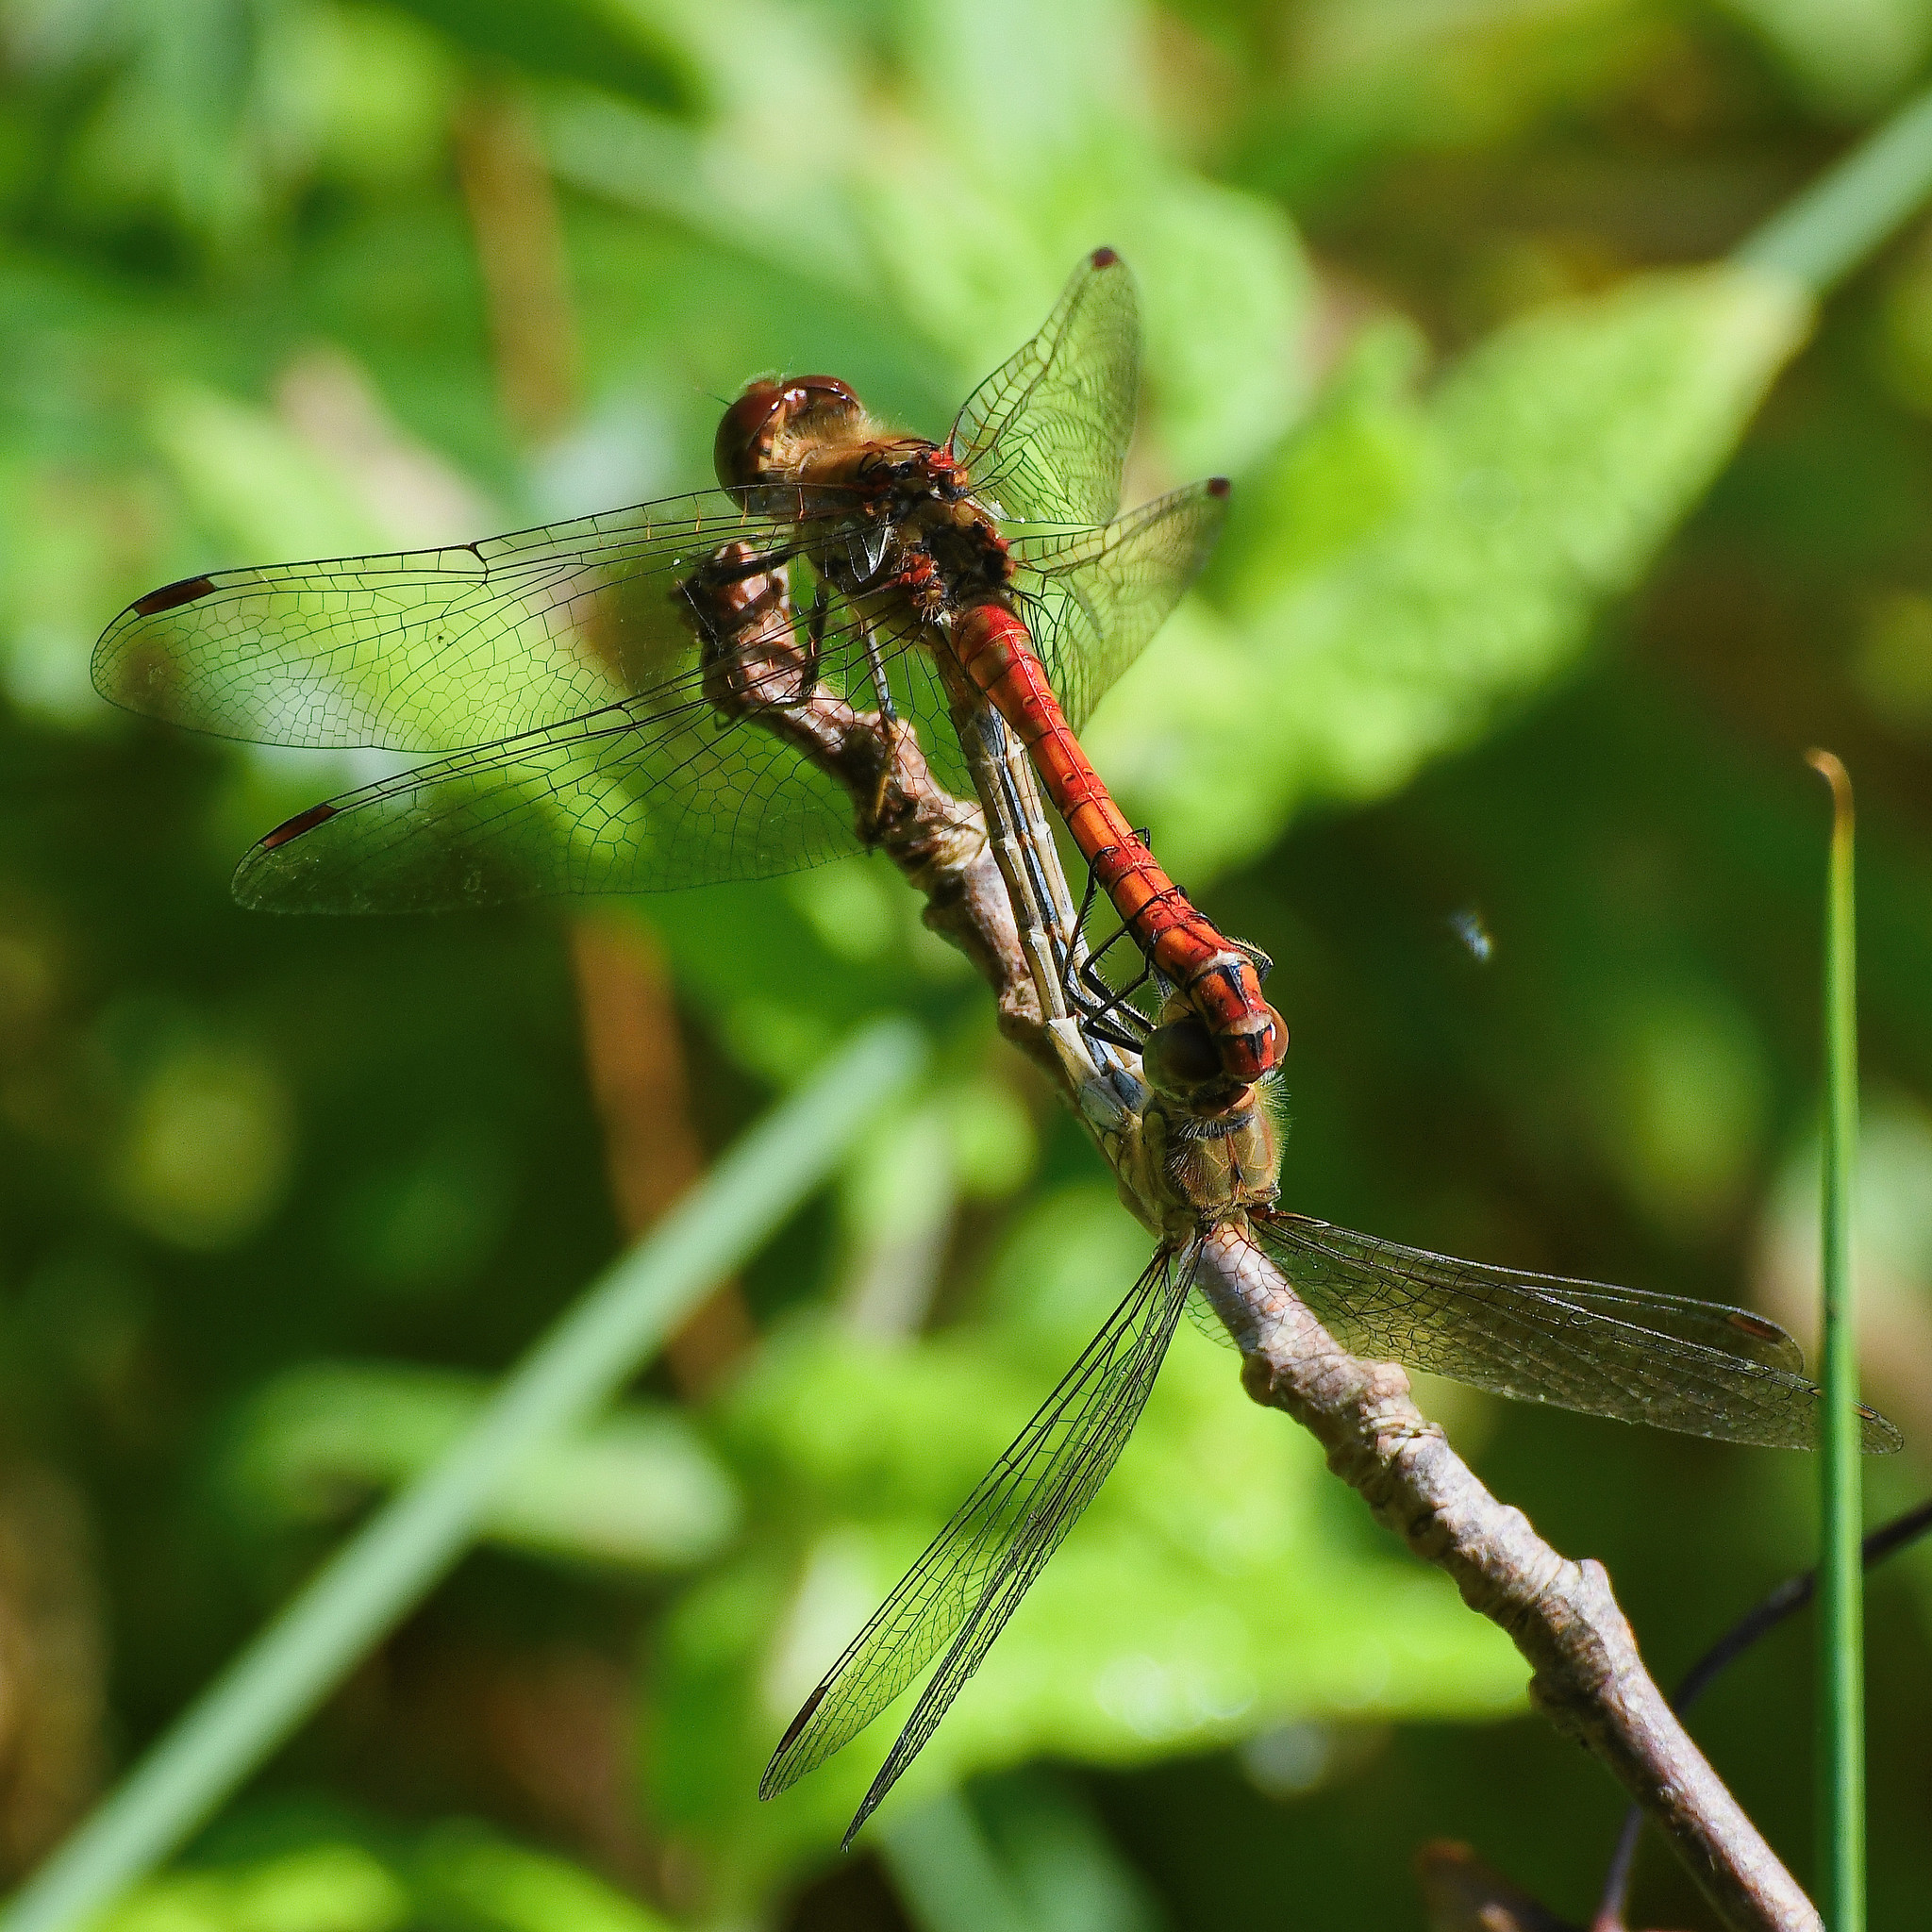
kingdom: Animalia
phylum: Arthropoda
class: Insecta
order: Odonata
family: Libellulidae
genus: Sympetrum
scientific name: Sympetrum striolatum
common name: Common darter
